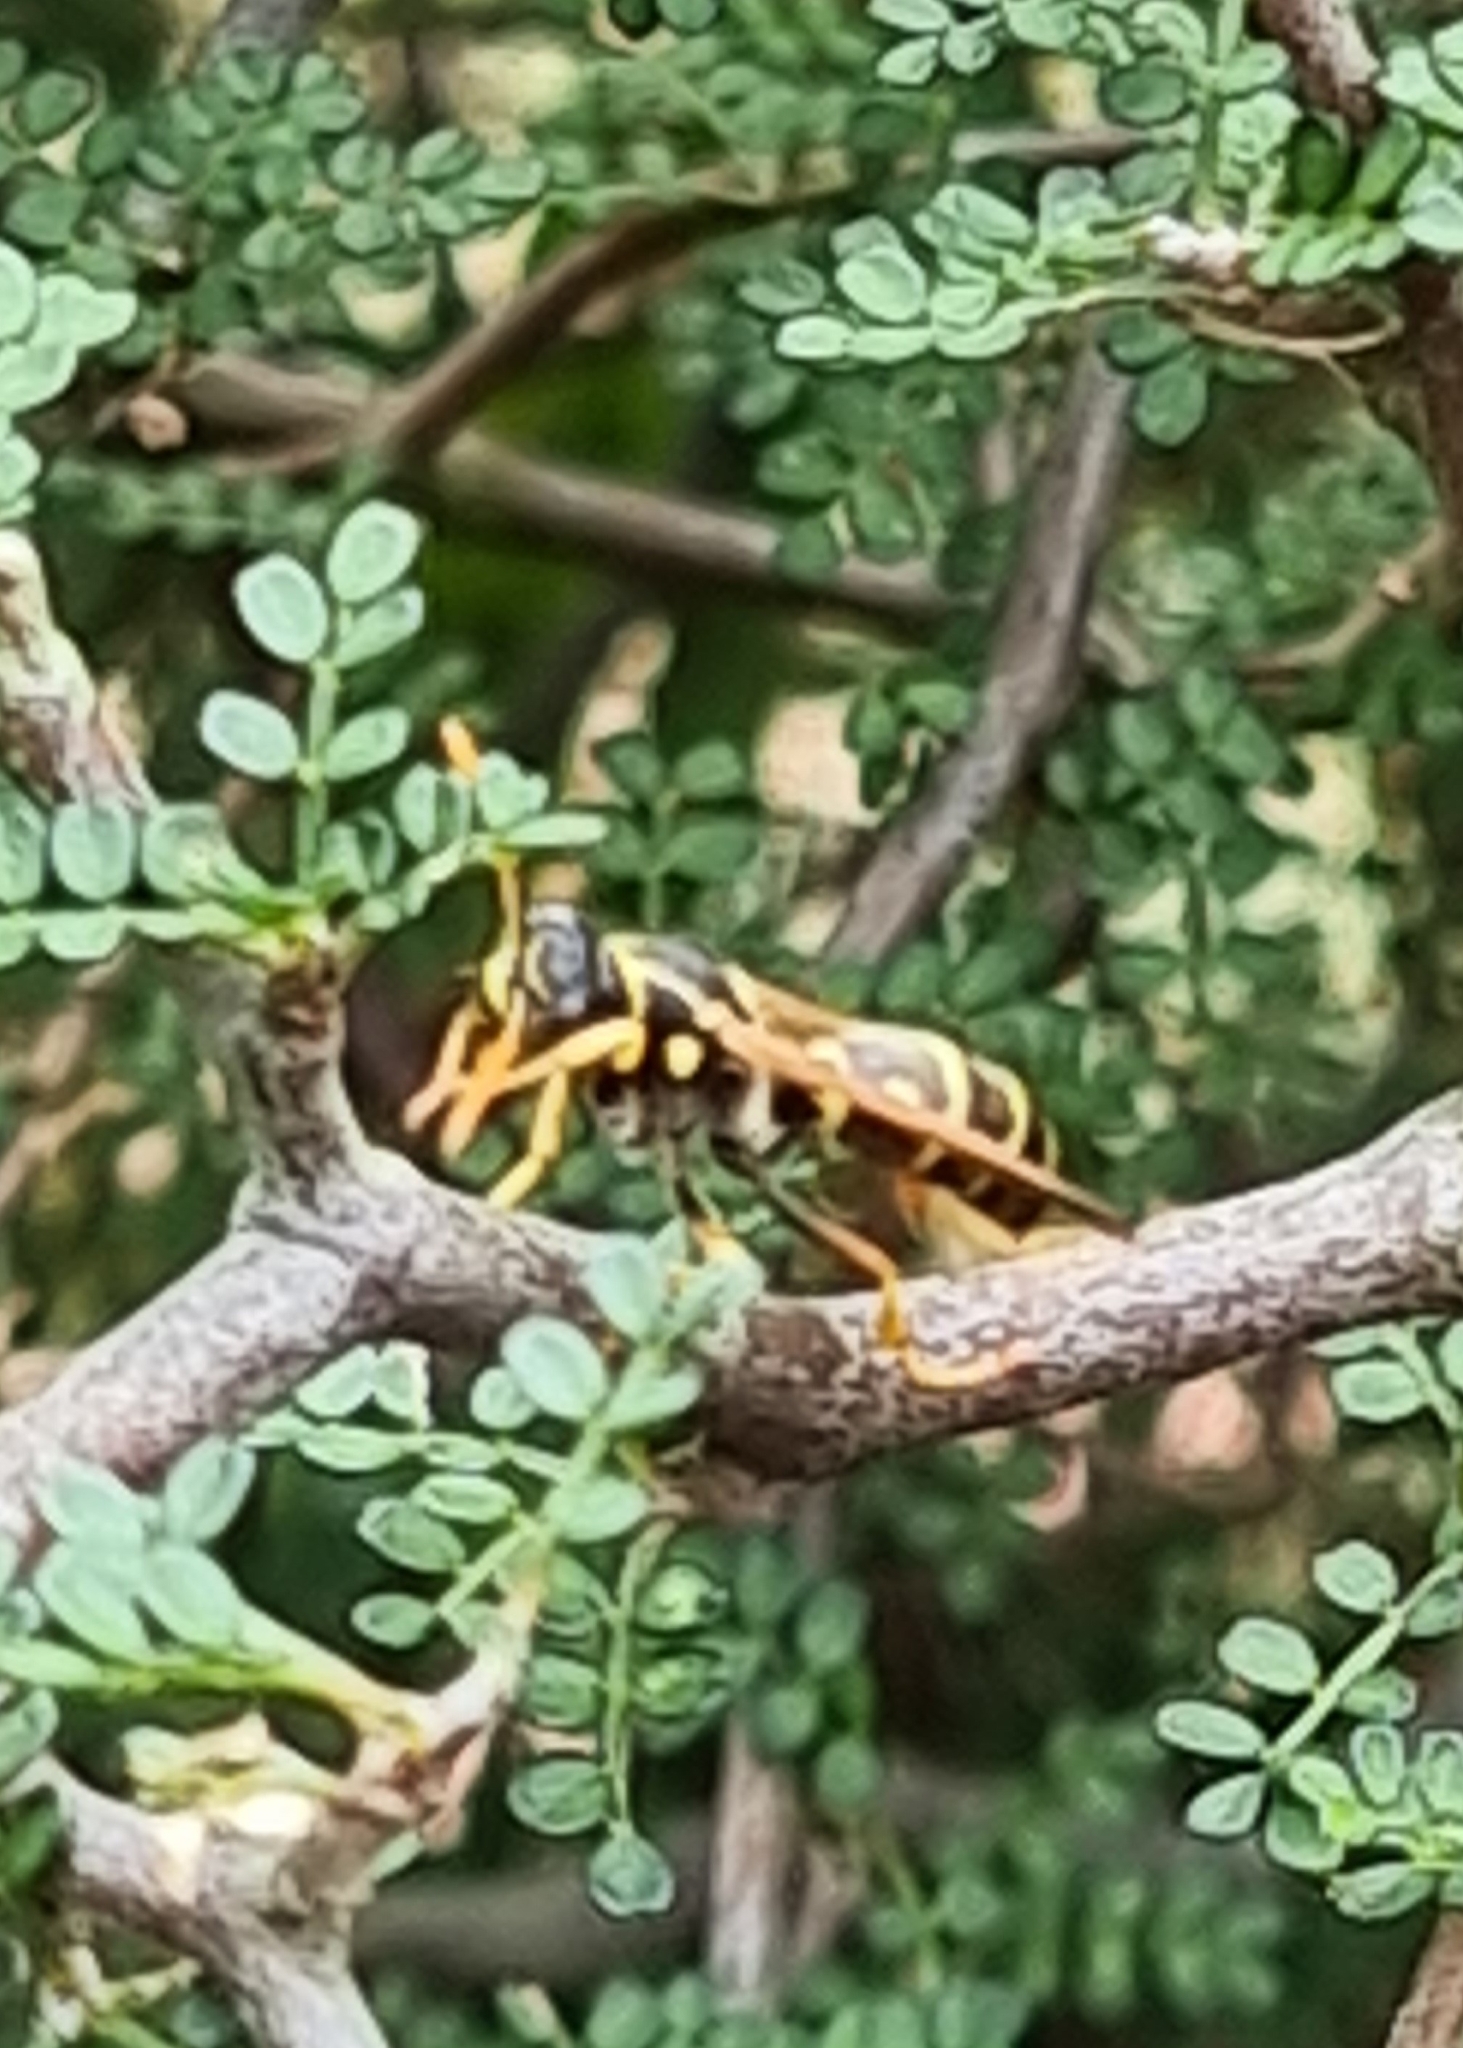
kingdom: Animalia
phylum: Arthropoda
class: Insecta
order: Hymenoptera
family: Eumenidae
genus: Polistes
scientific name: Polistes chinensis
